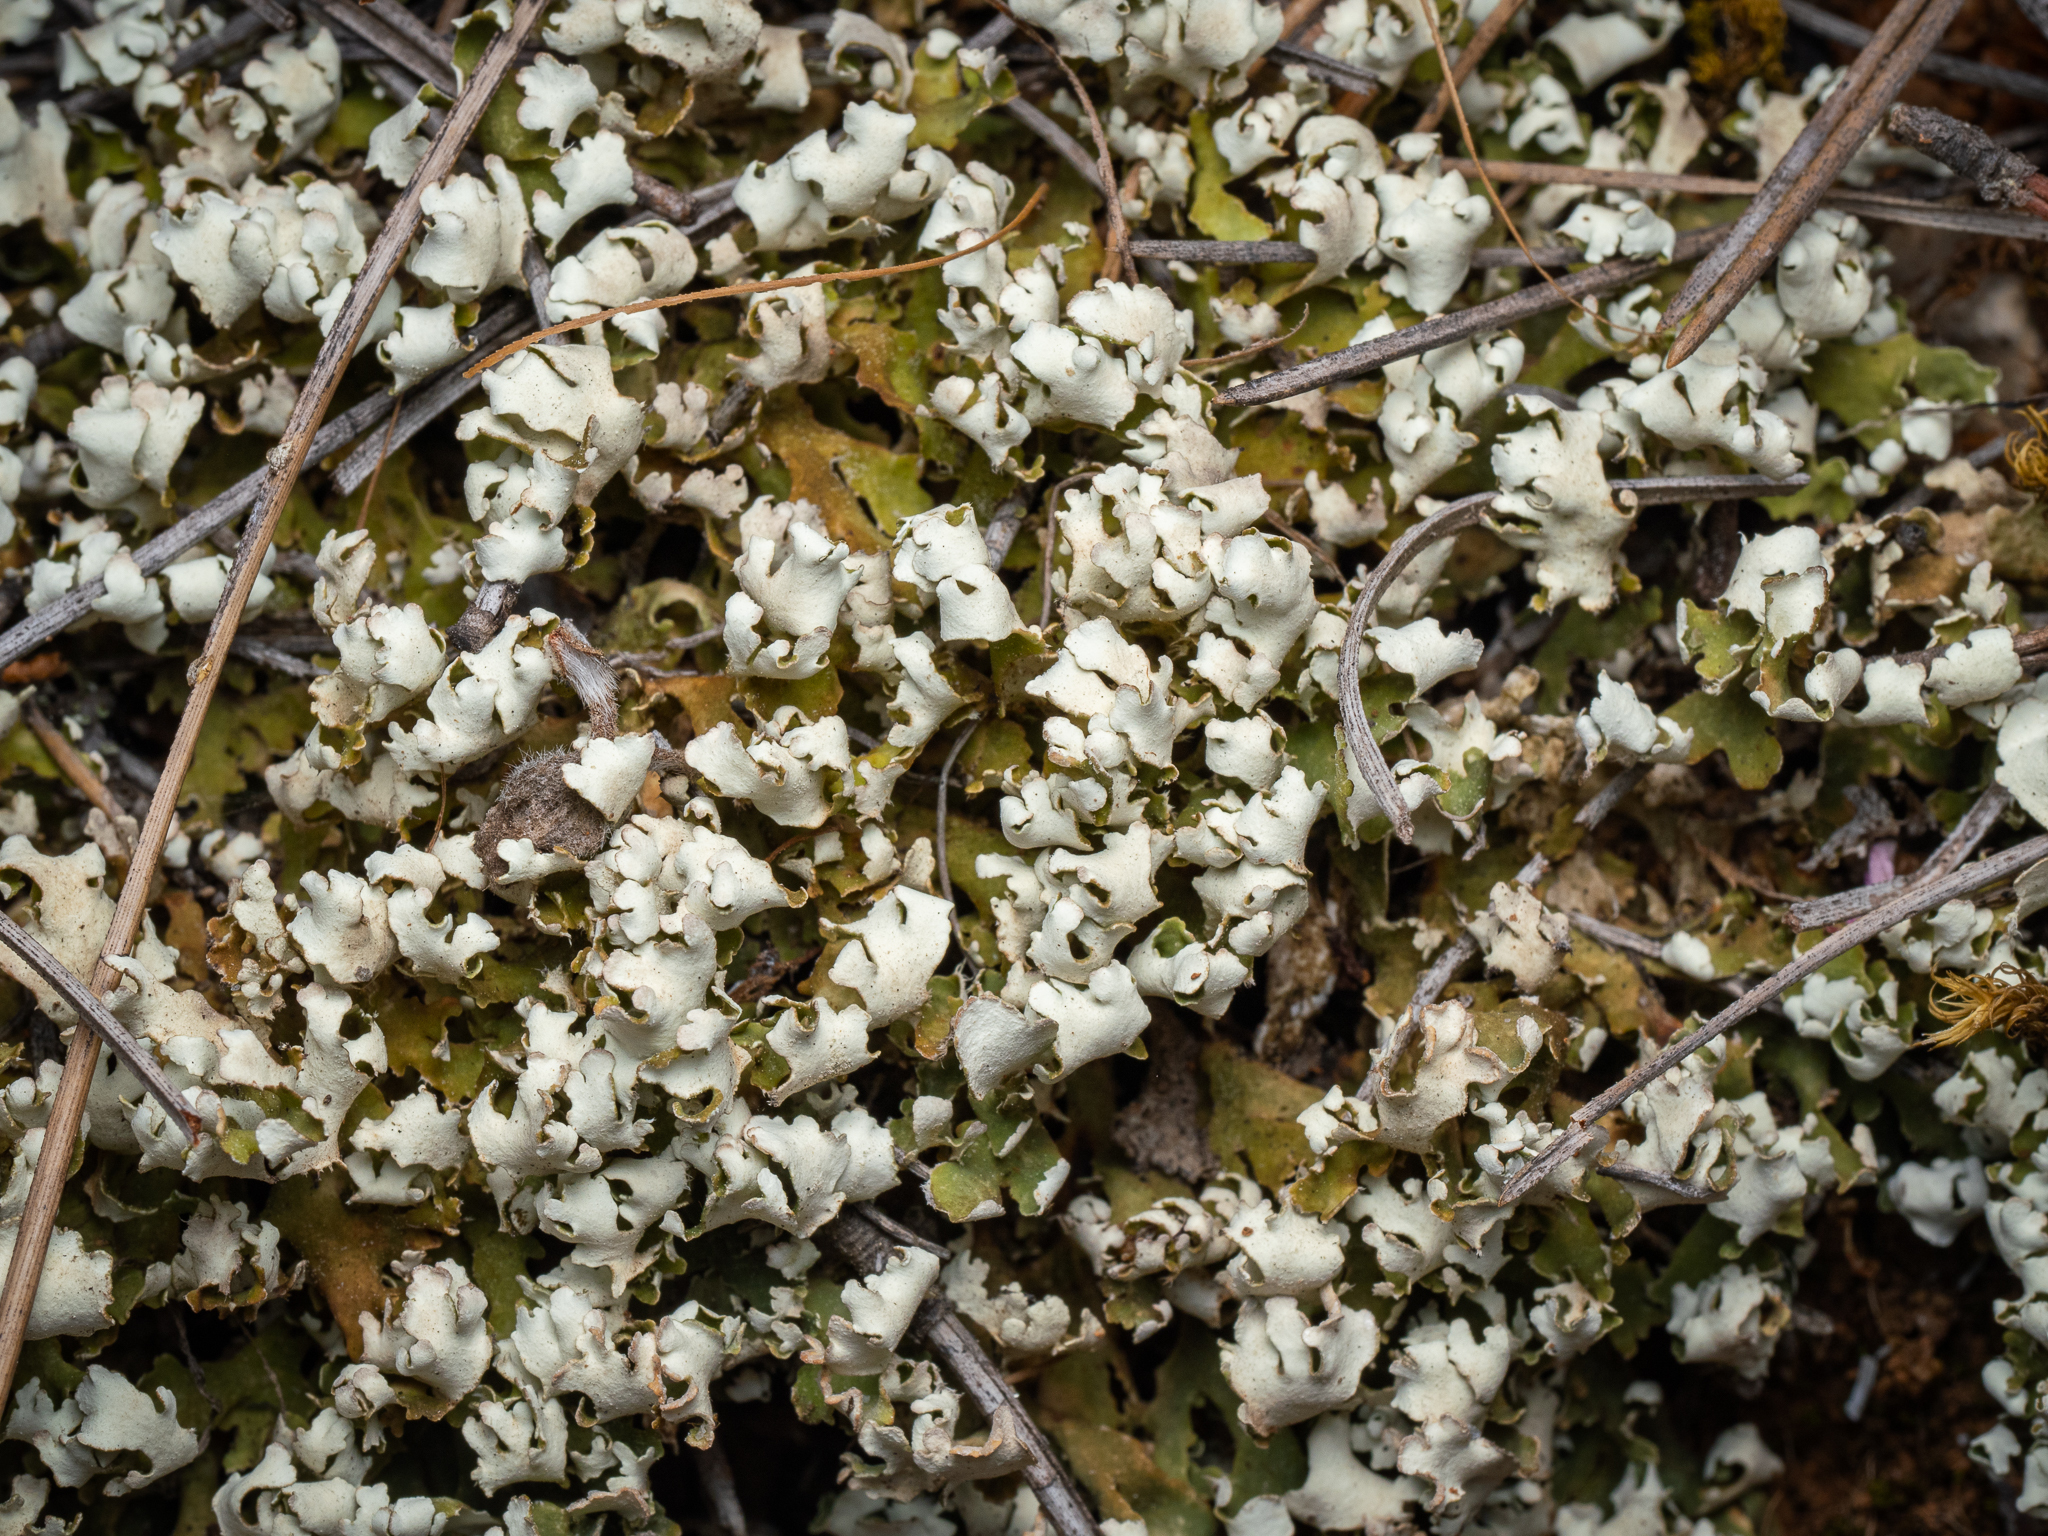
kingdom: Fungi
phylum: Ascomycota
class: Lecanoromycetes
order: Lecanorales
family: Cladoniaceae
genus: Cladonia
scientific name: Cladonia foliacea
